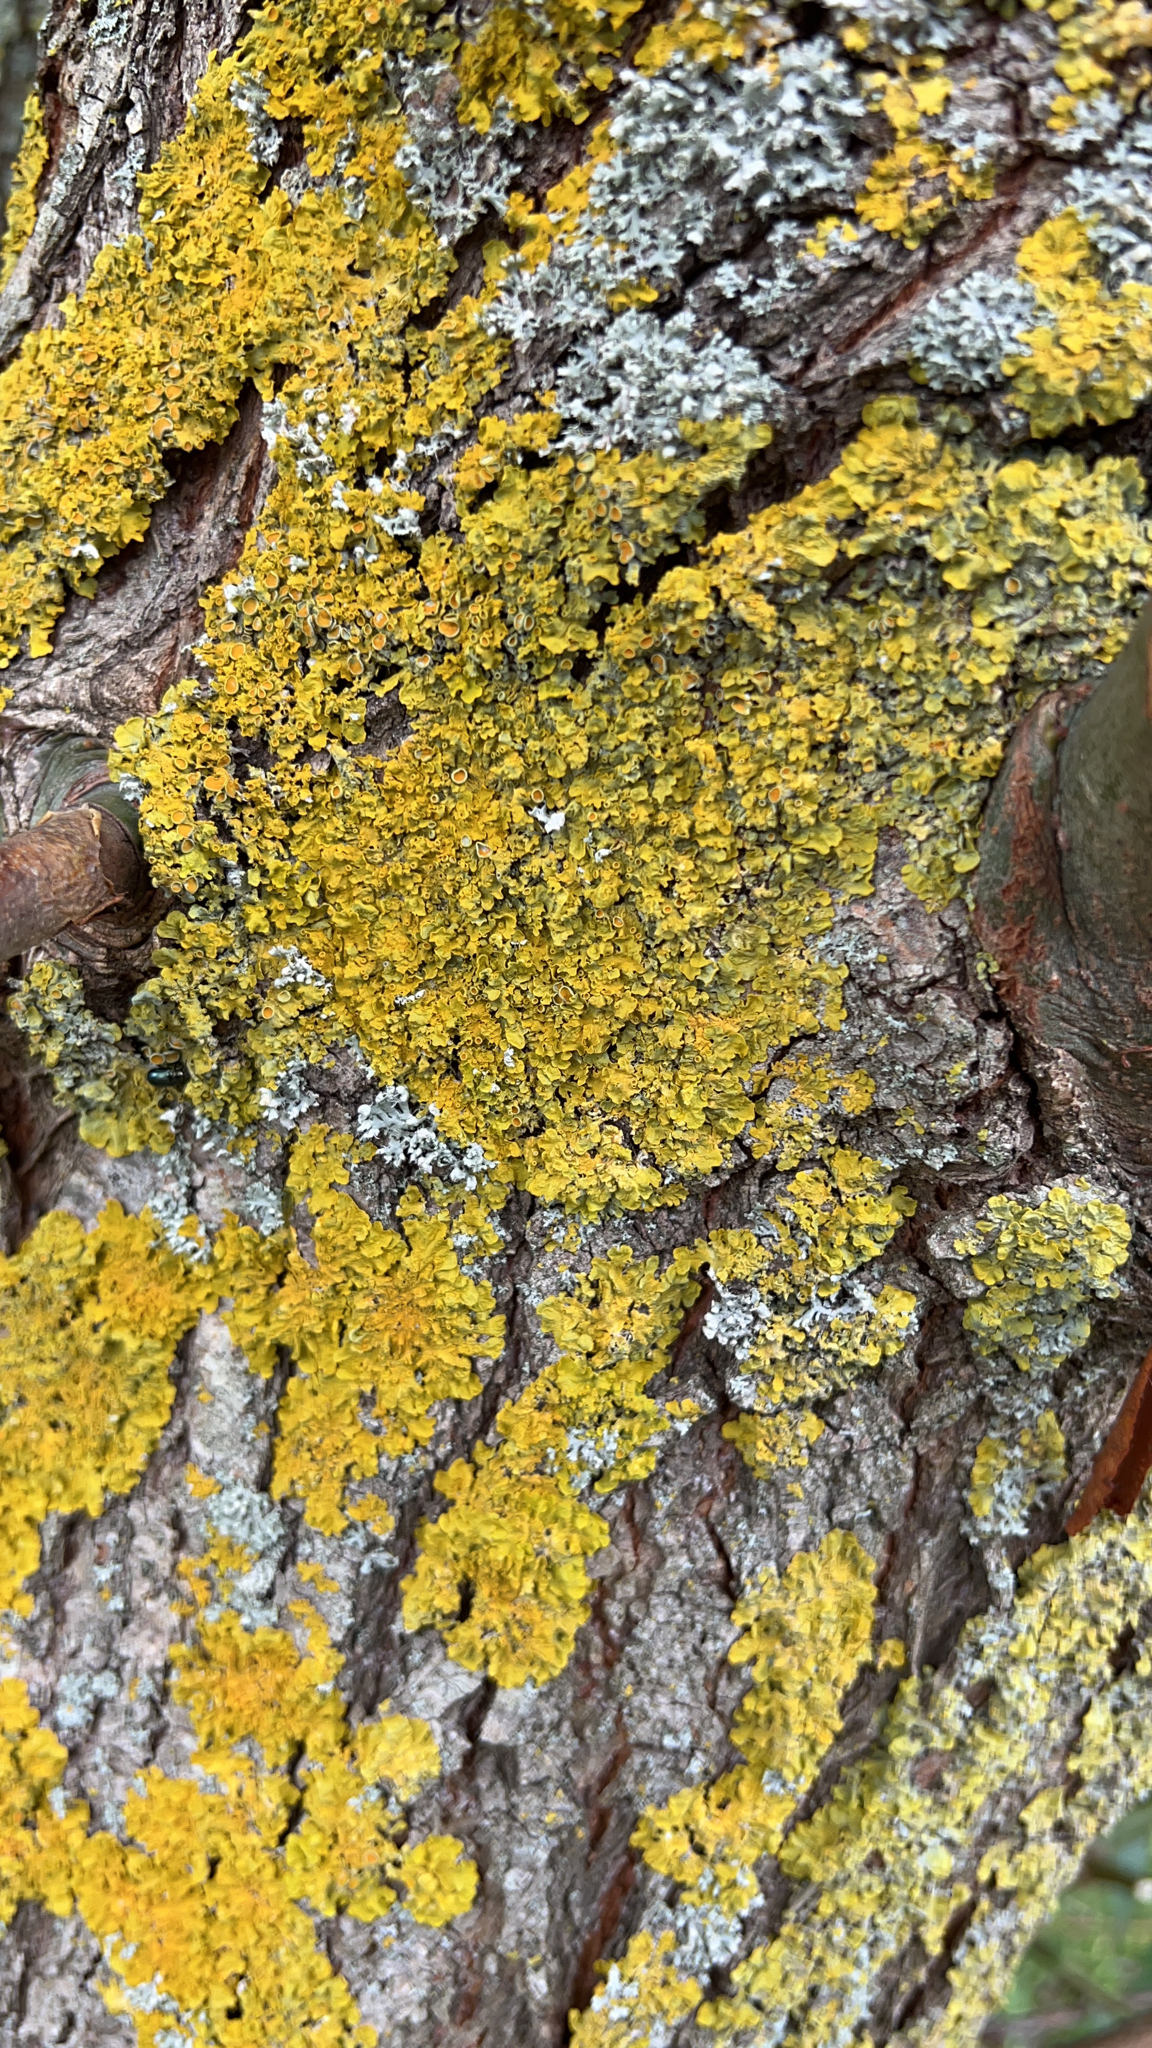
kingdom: Fungi
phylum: Ascomycota
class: Lecanoromycetes
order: Teloschistales
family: Teloschistaceae
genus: Xanthoria
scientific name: Xanthoria parietina
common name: Common orange lichen
